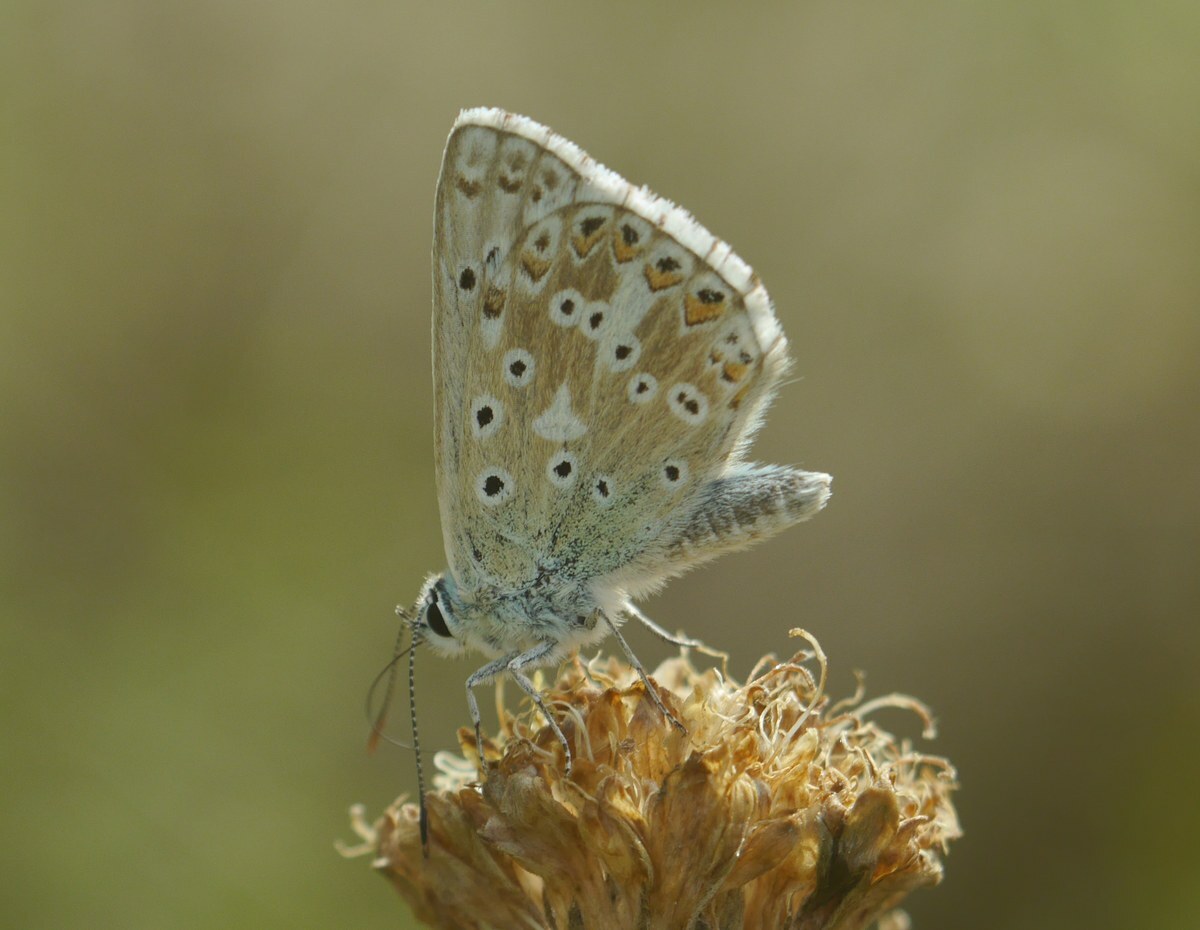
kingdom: Animalia
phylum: Arthropoda
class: Insecta
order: Lepidoptera
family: Lycaenidae
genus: Lysandra
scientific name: Lysandra coridon
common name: Chalkhill blue
